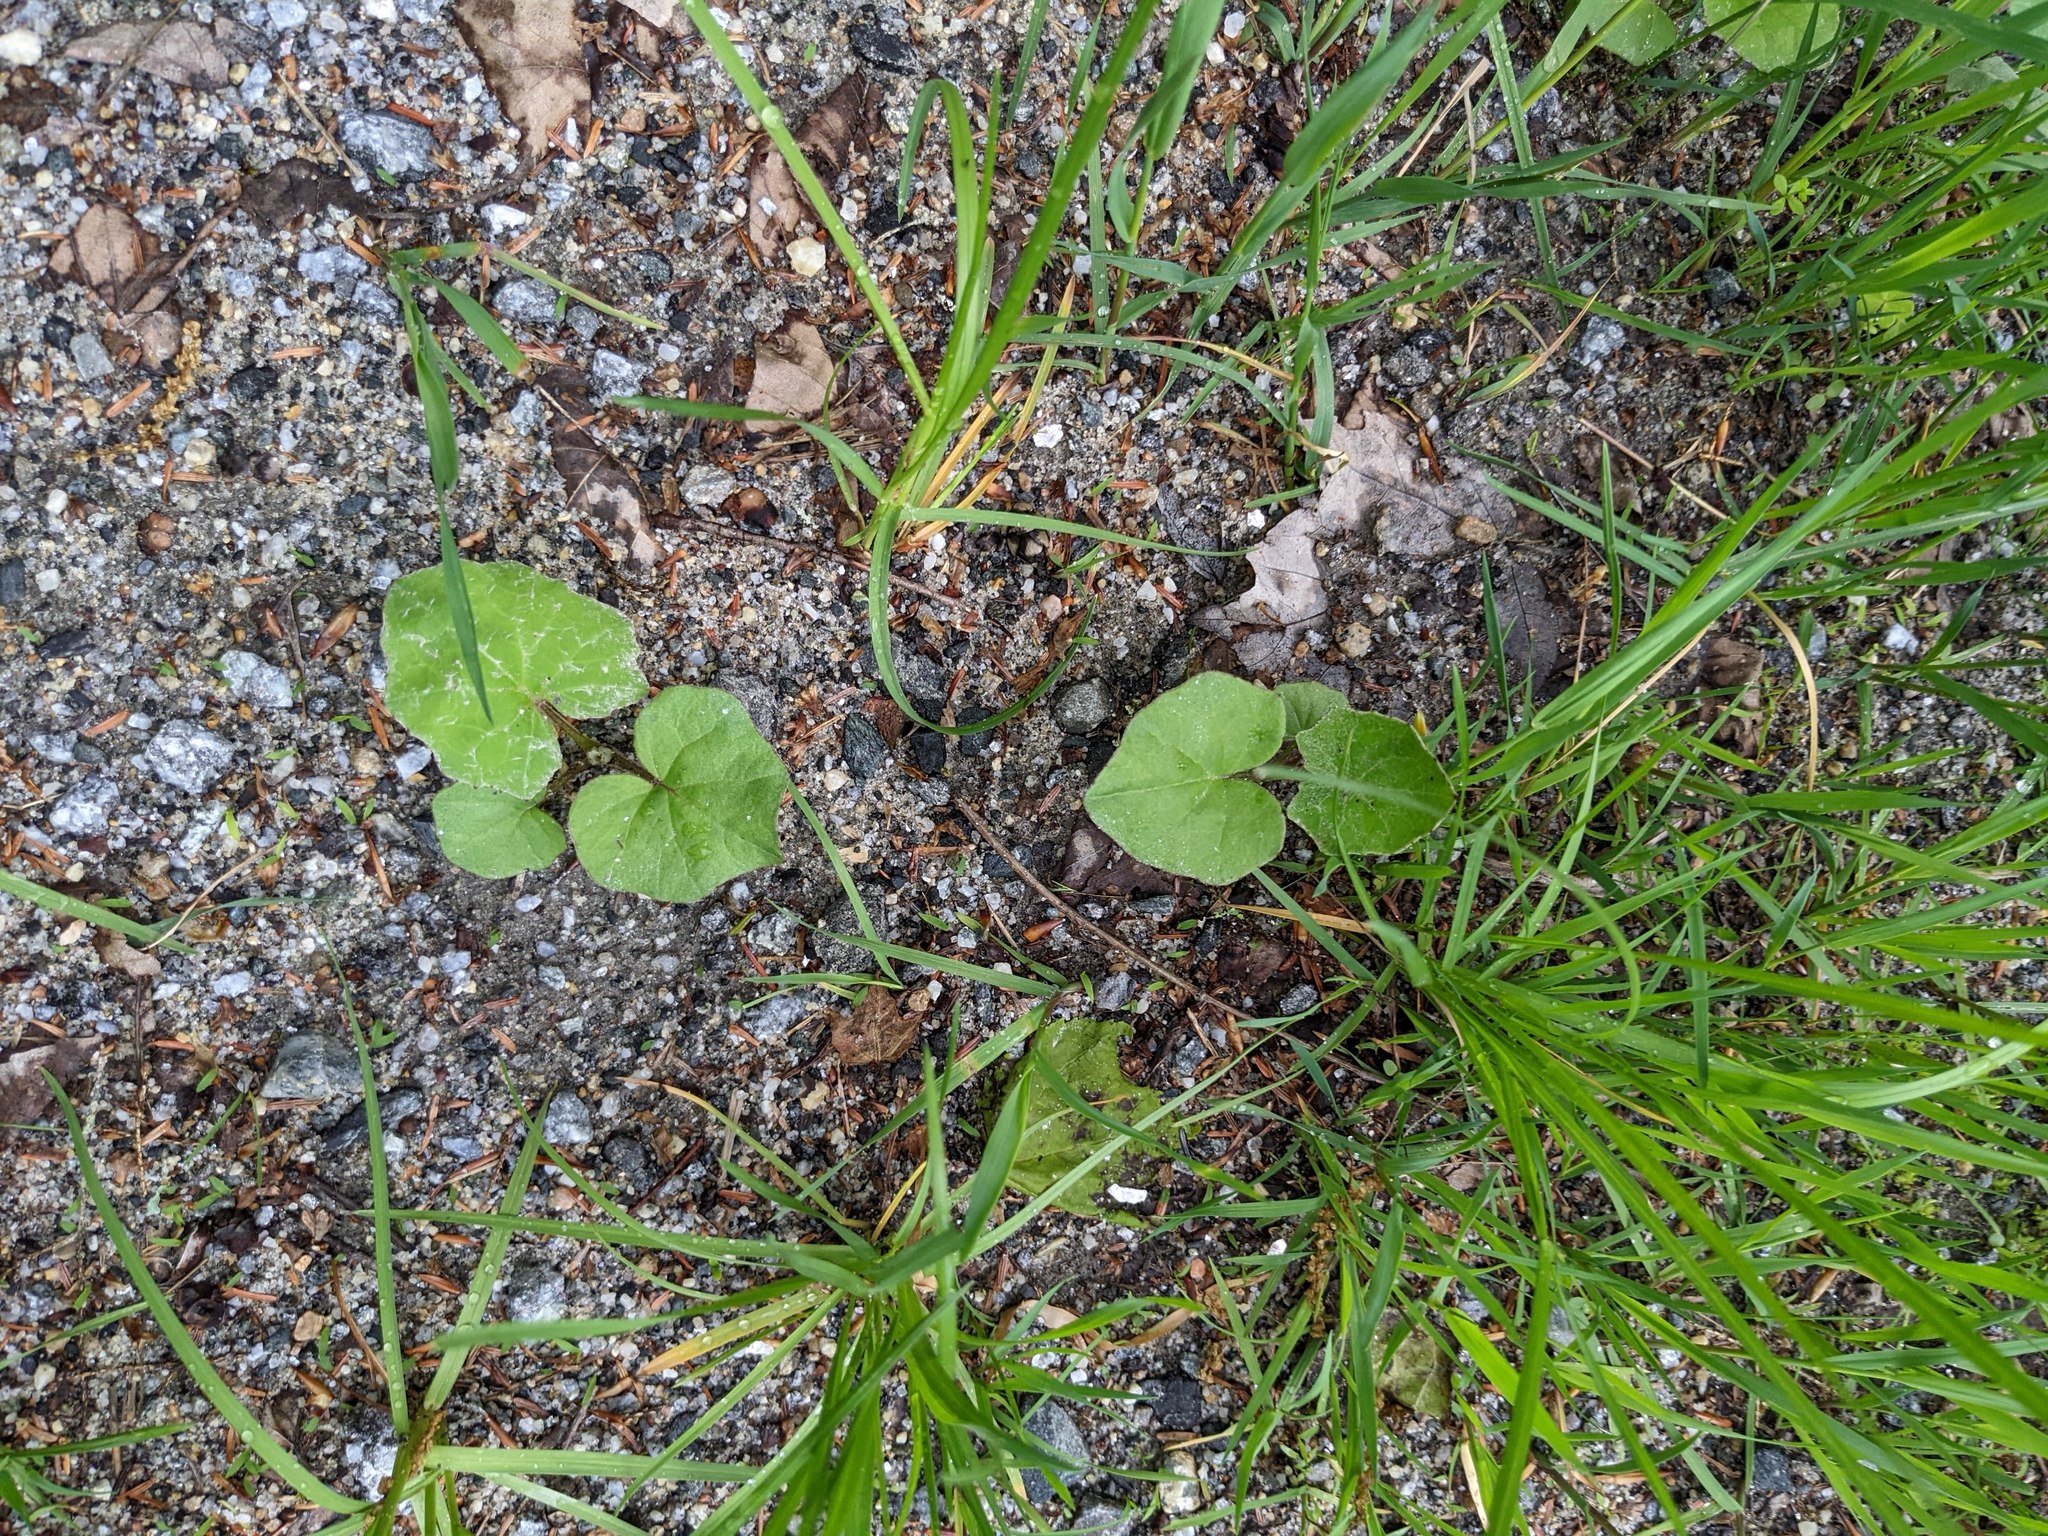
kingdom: Plantae
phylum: Tracheophyta
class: Magnoliopsida
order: Asterales
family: Asteraceae
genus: Tussilago
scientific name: Tussilago farfara
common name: Coltsfoot
